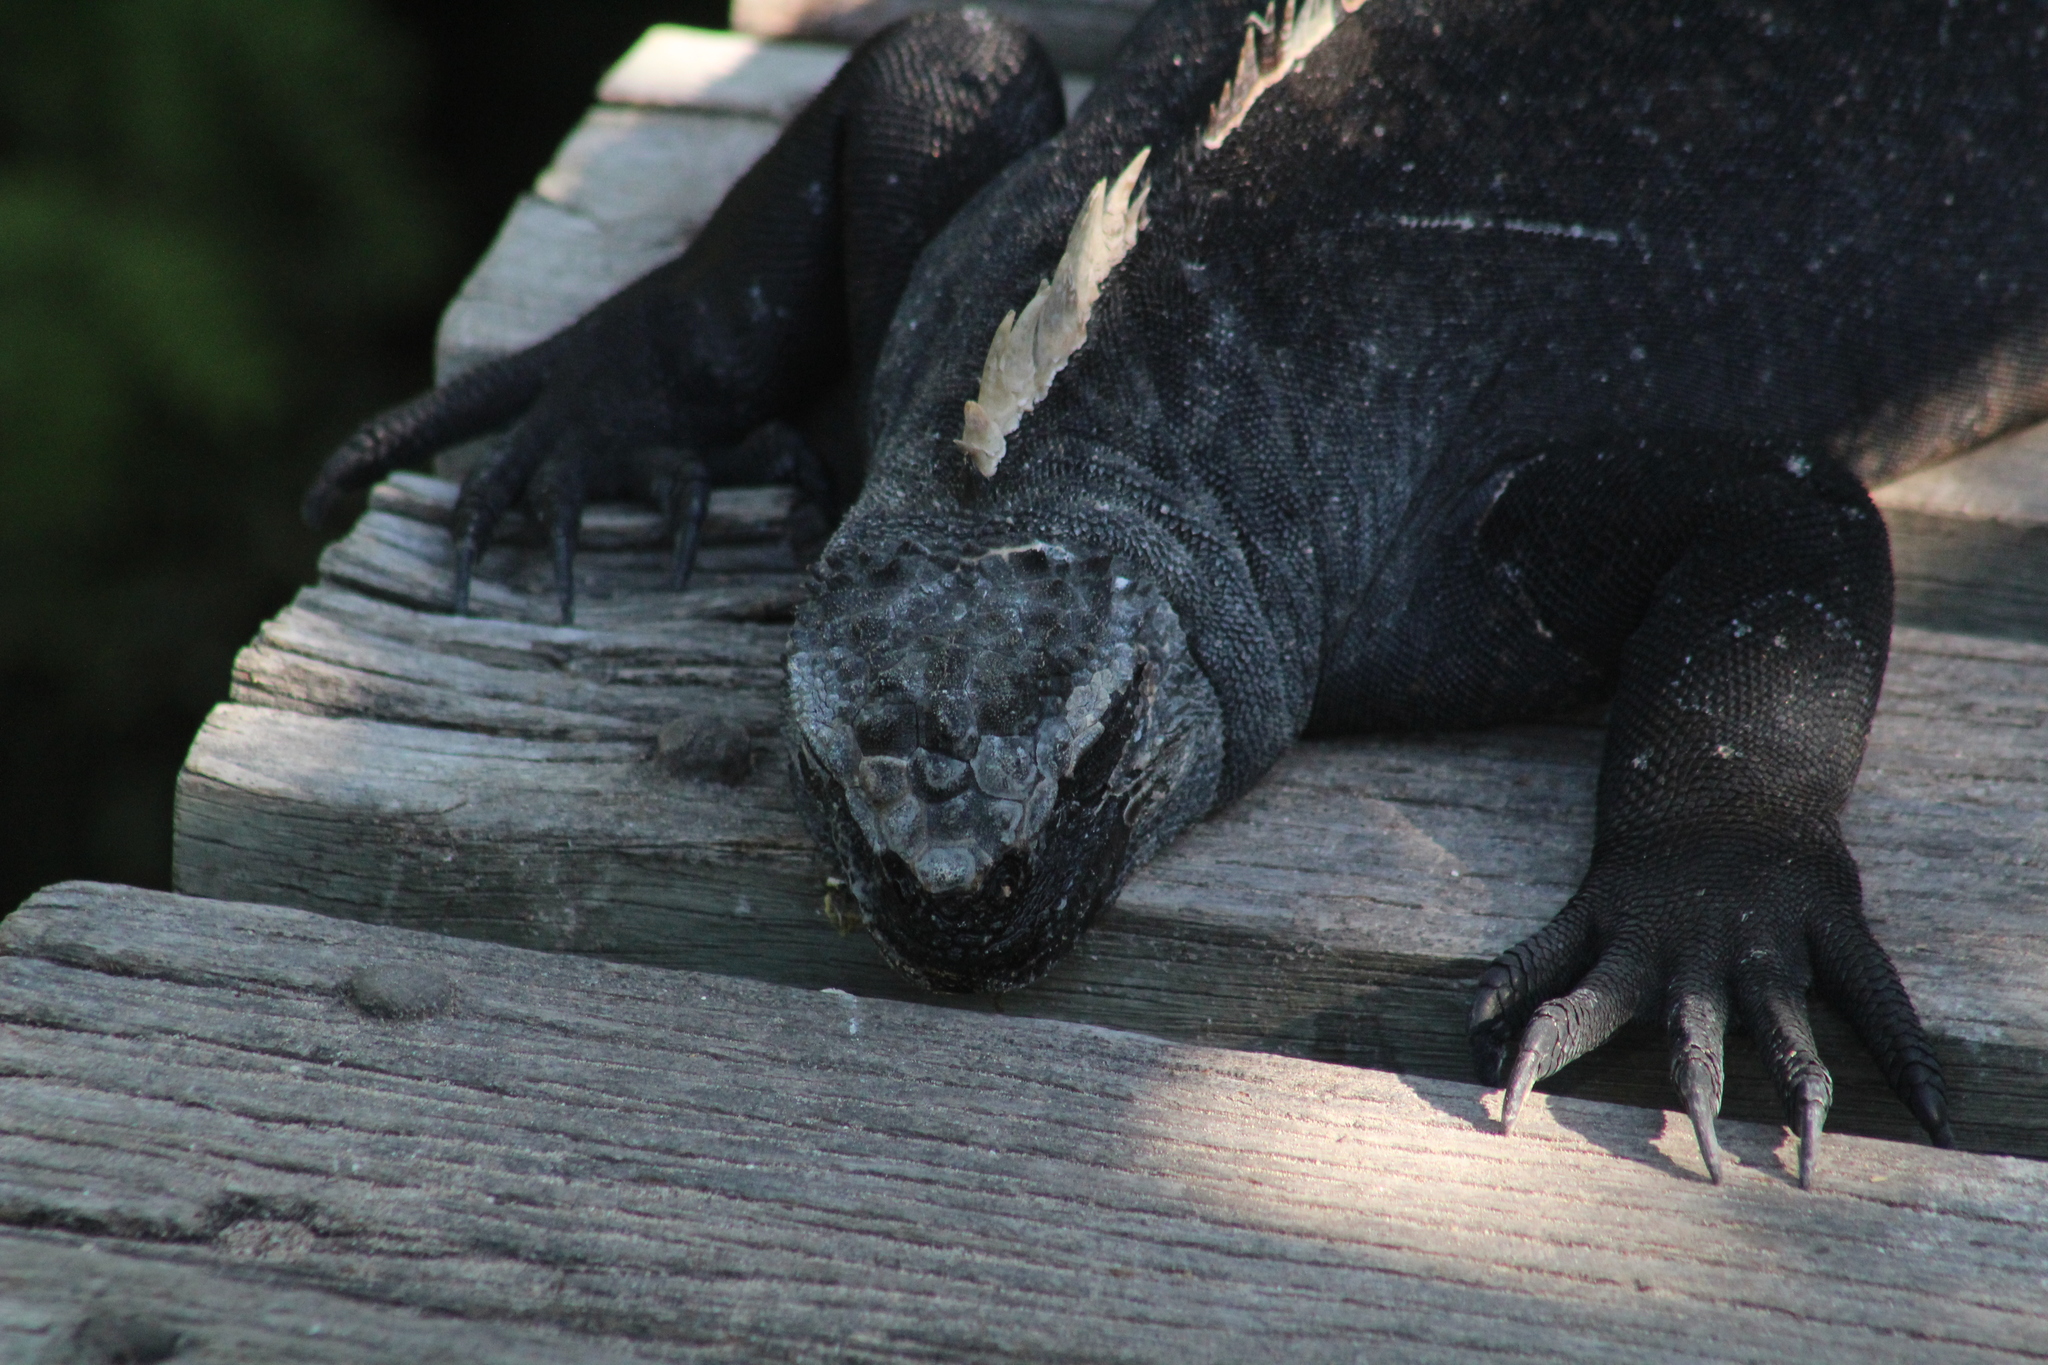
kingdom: Animalia
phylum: Chordata
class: Squamata
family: Iguanidae
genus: Amblyrhynchus
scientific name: Amblyrhynchus cristatus
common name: Marine iguana
